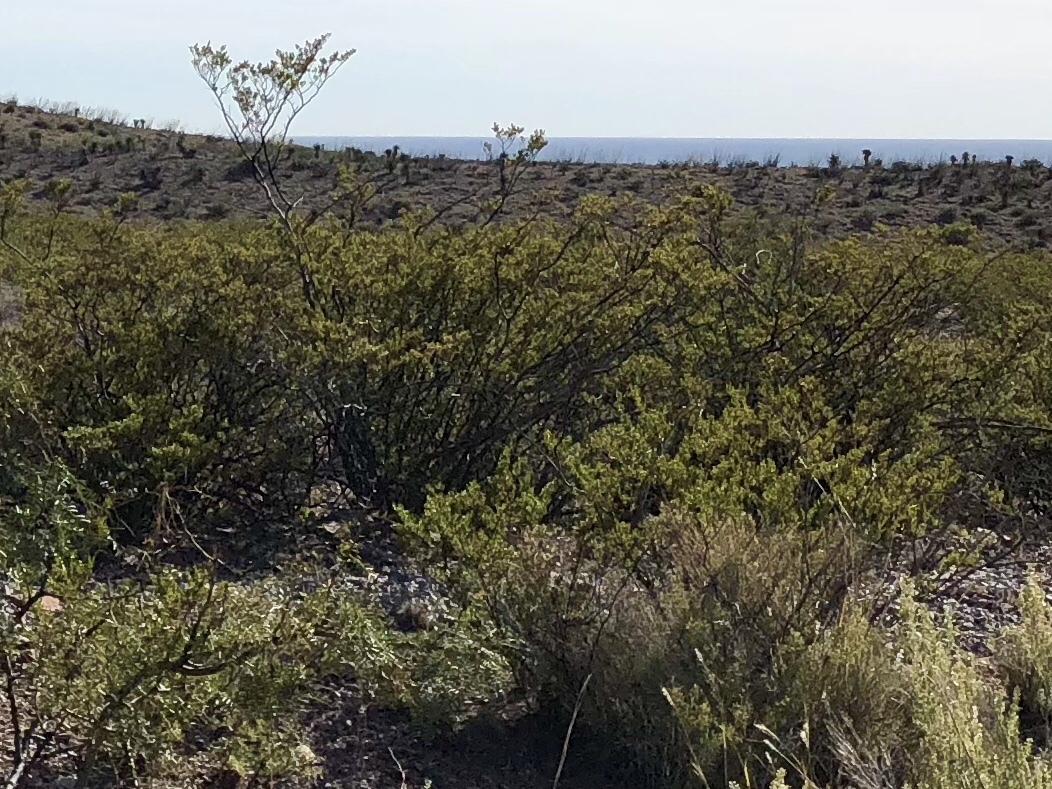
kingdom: Plantae
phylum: Tracheophyta
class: Magnoliopsida
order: Zygophyllales
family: Zygophyllaceae
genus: Larrea
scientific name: Larrea tridentata
